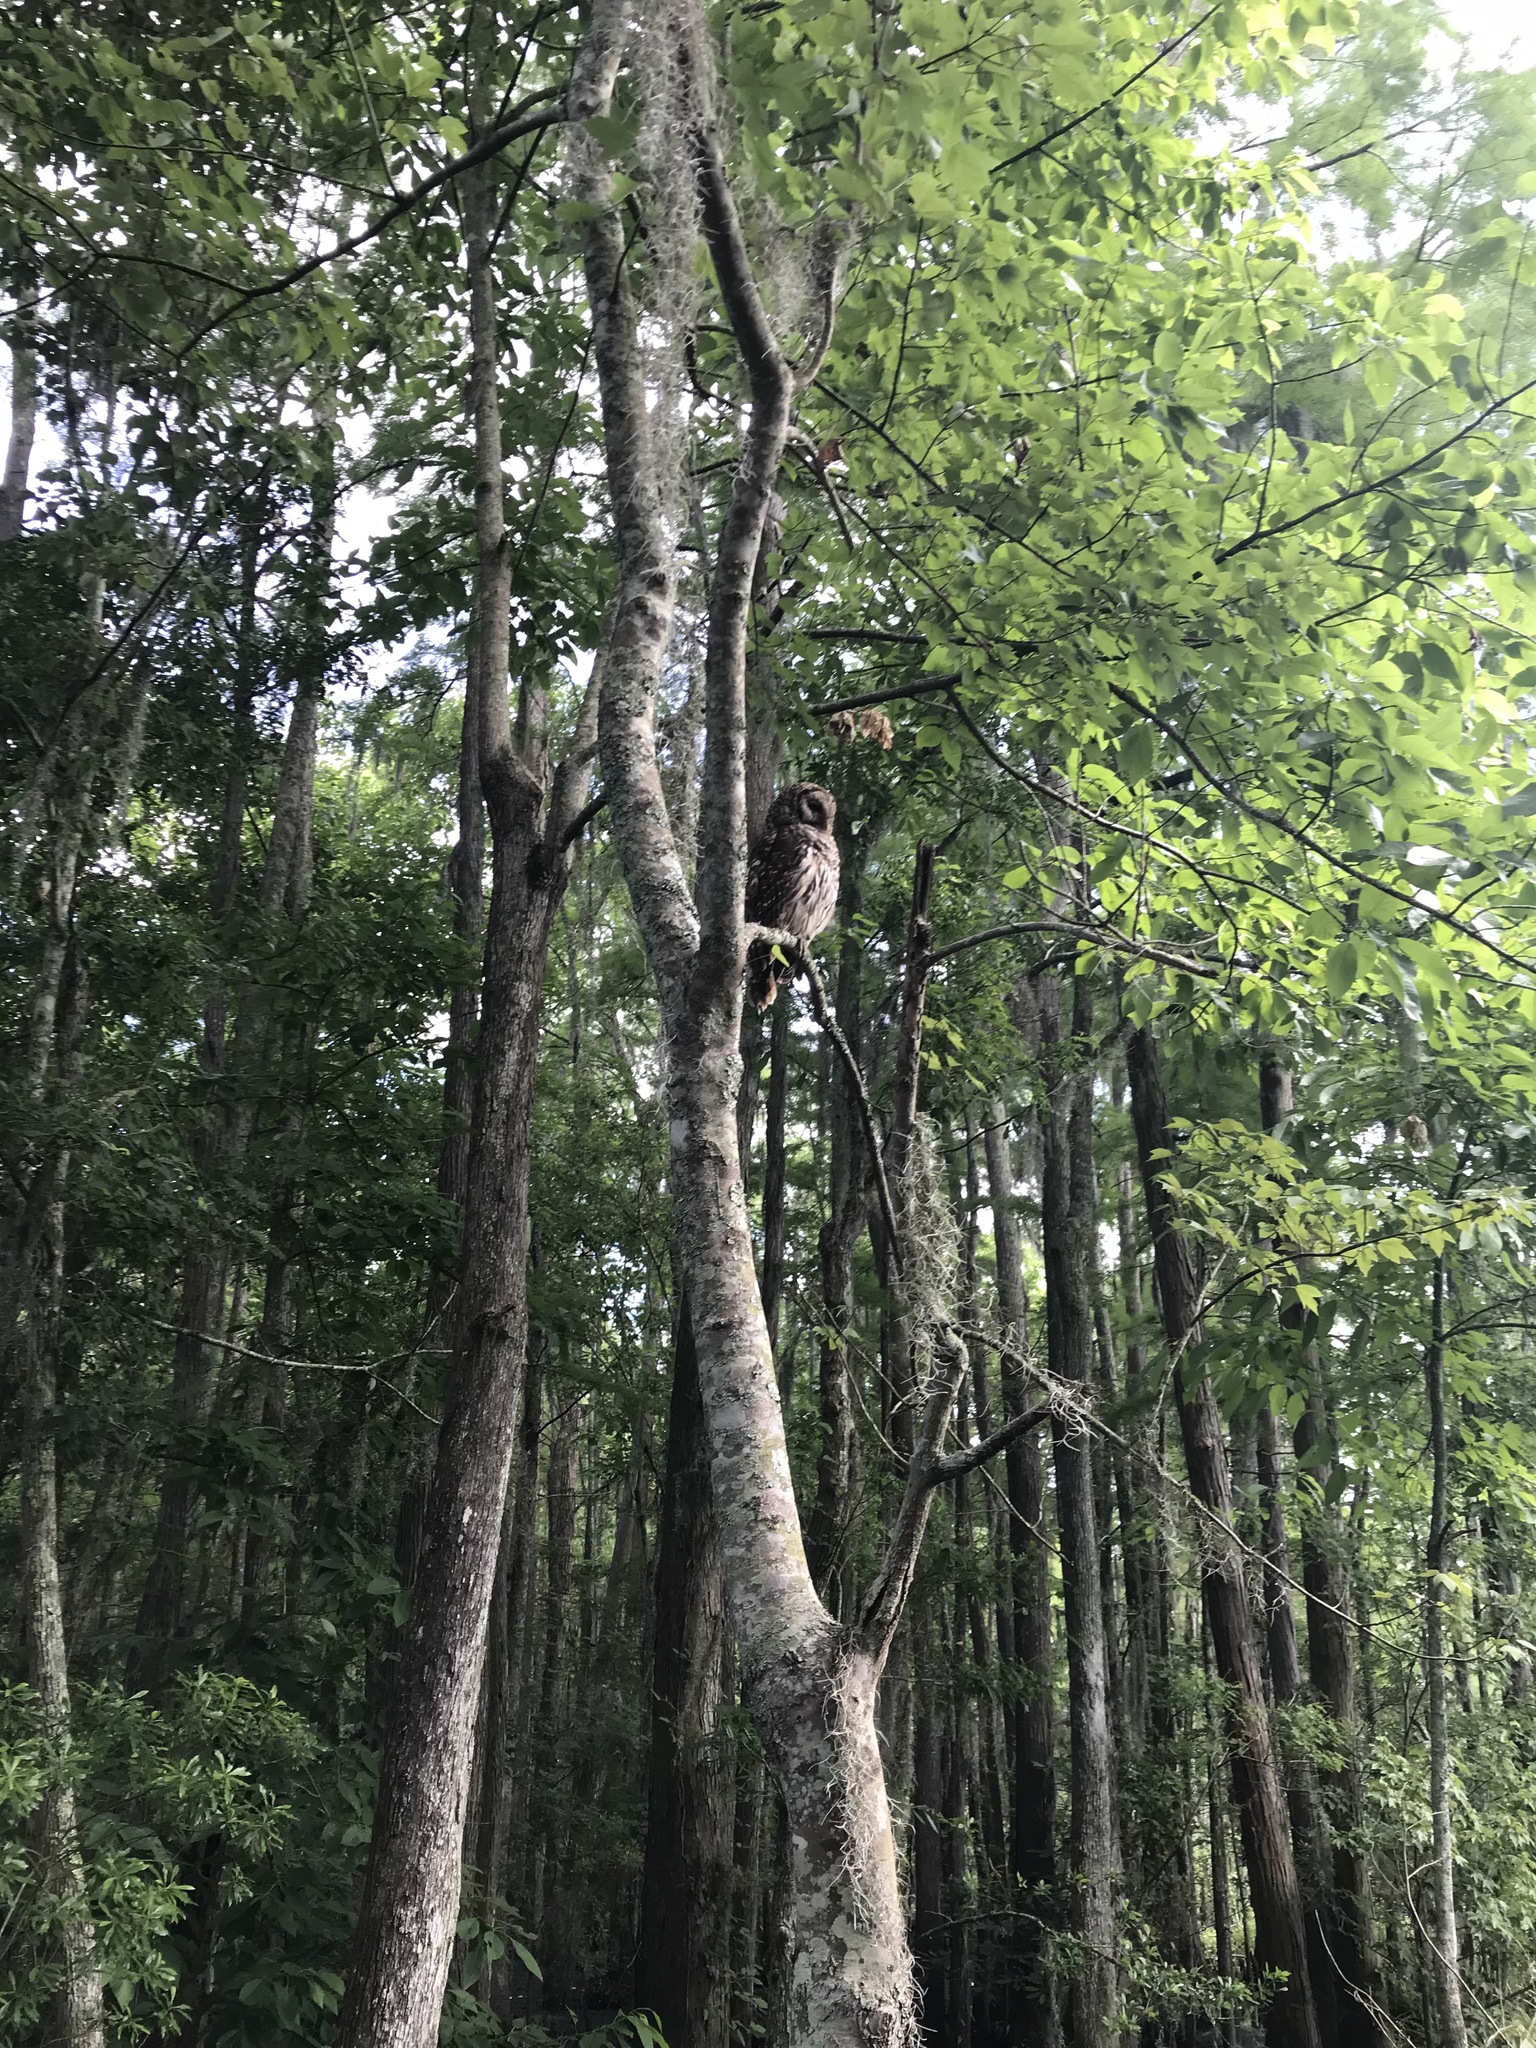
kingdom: Animalia
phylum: Chordata
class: Aves
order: Strigiformes
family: Strigidae
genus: Strix
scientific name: Strix varia
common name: Barred owl
